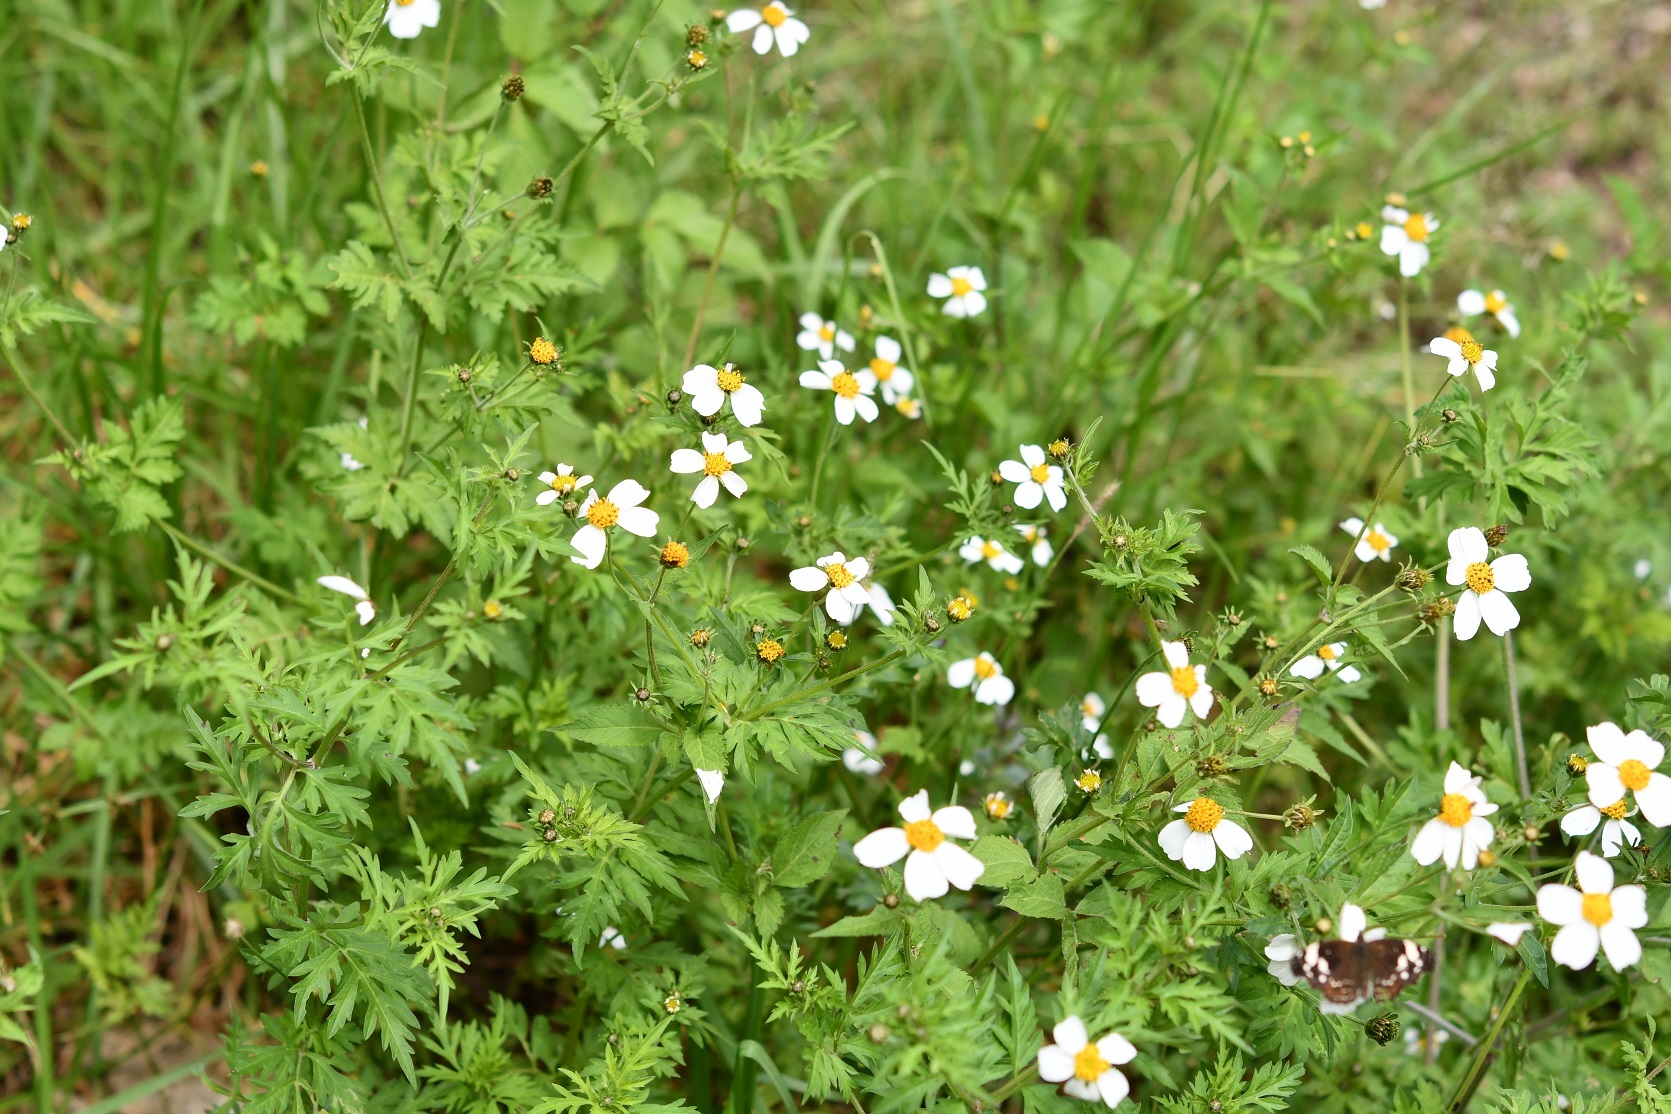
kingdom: Plantae
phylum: Tracheophyta
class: Magnoliopsida
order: Asterales
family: Asteraceae
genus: Bidens
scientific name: Bidens chrysanthemifolia
